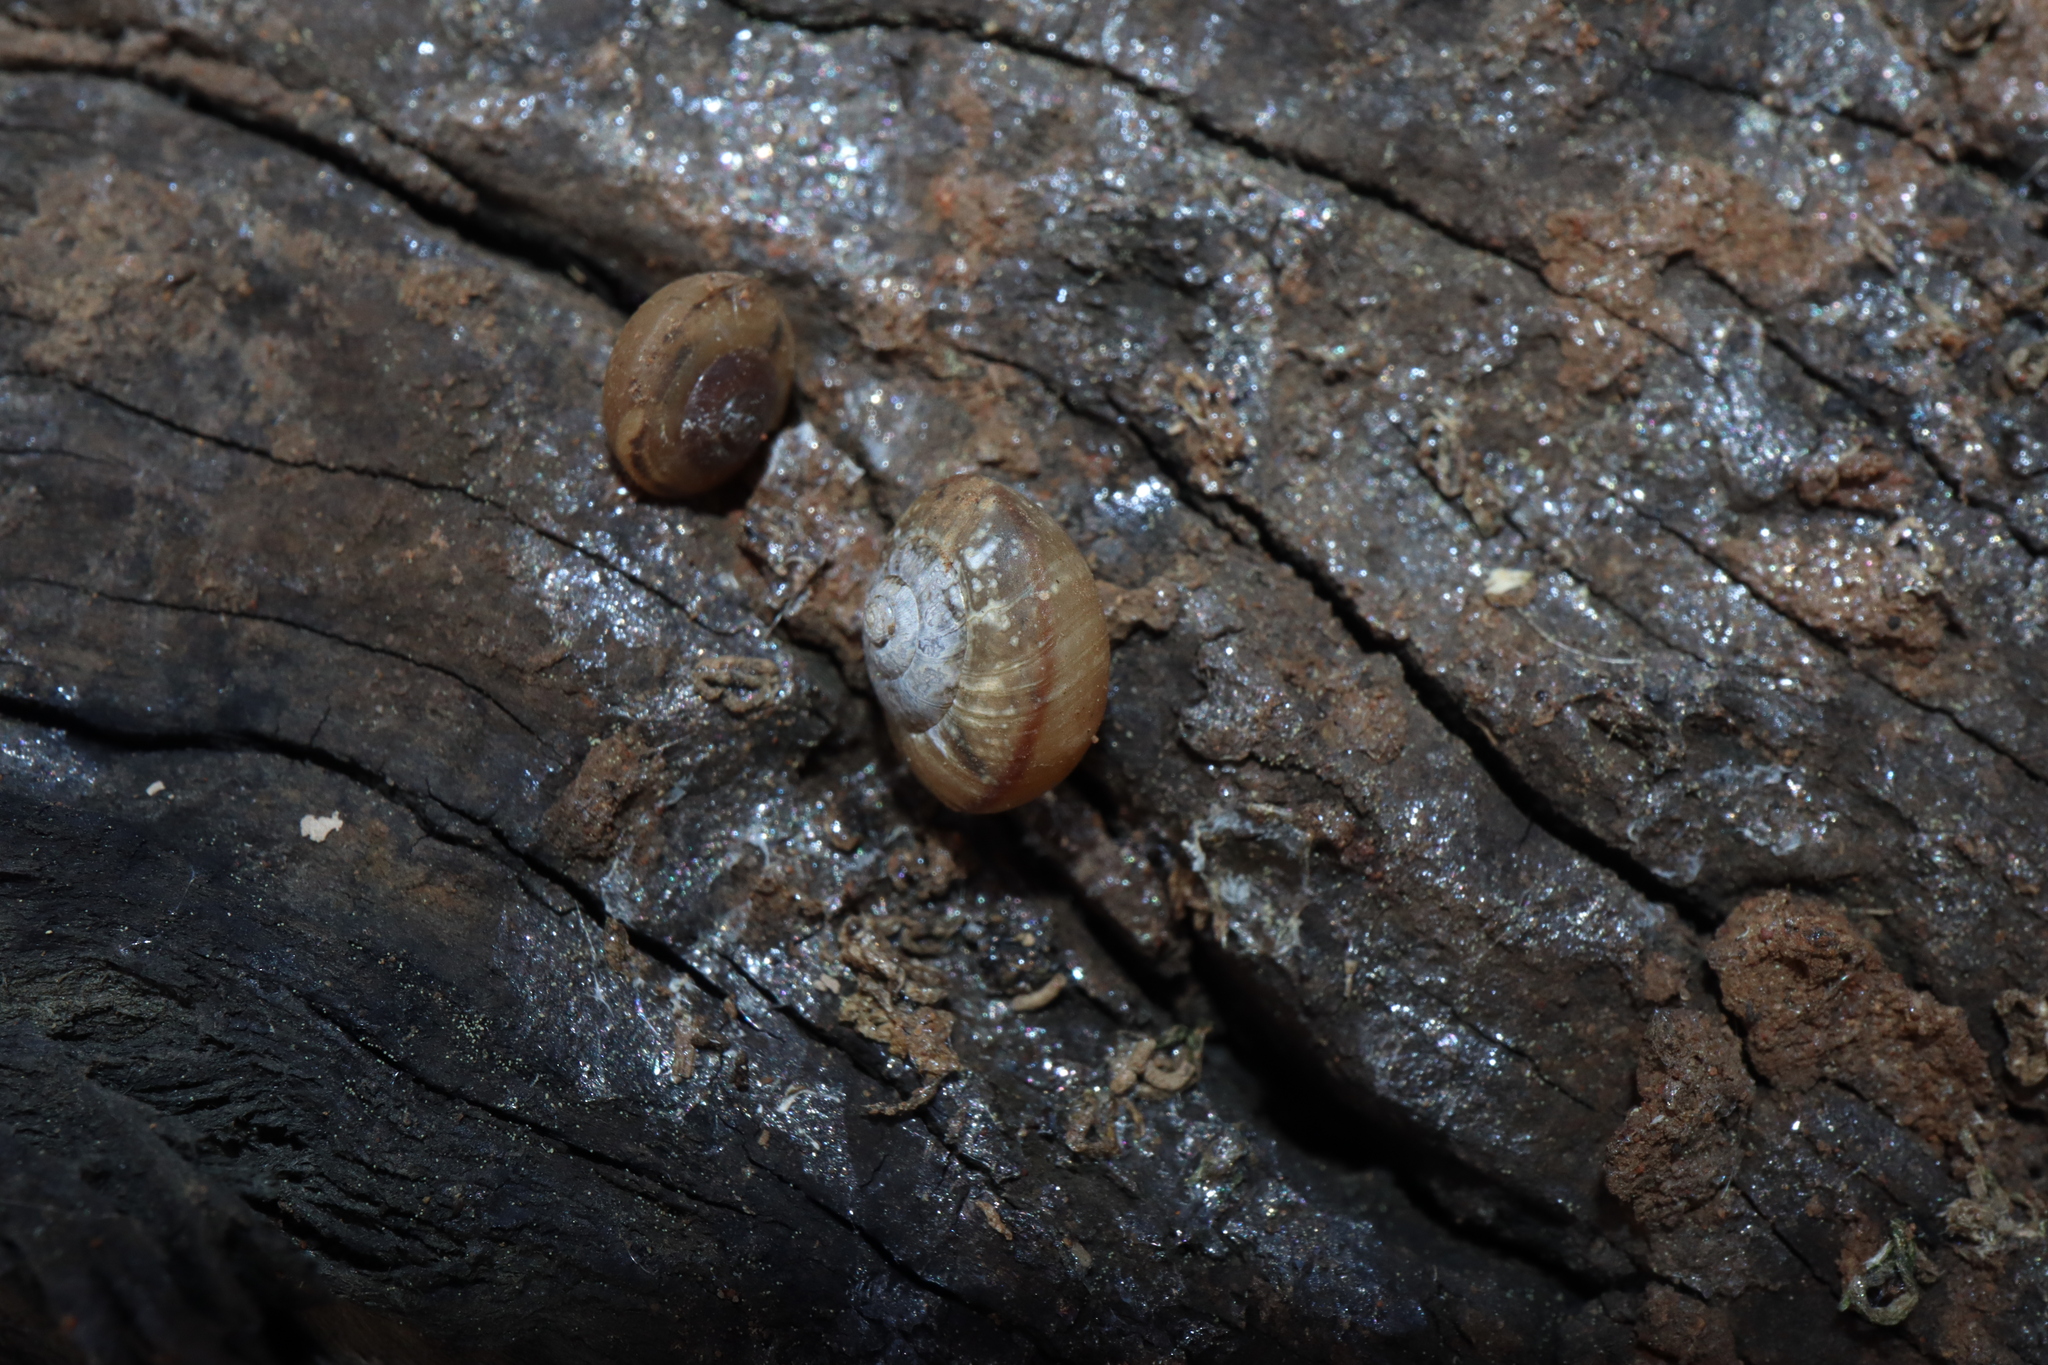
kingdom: Animalia
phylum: Mollusca
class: Gastropoda
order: Stylommatophora
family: Camaenidae
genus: Bradybaena
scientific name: Bradybaena similaris
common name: Asian trampsnail
